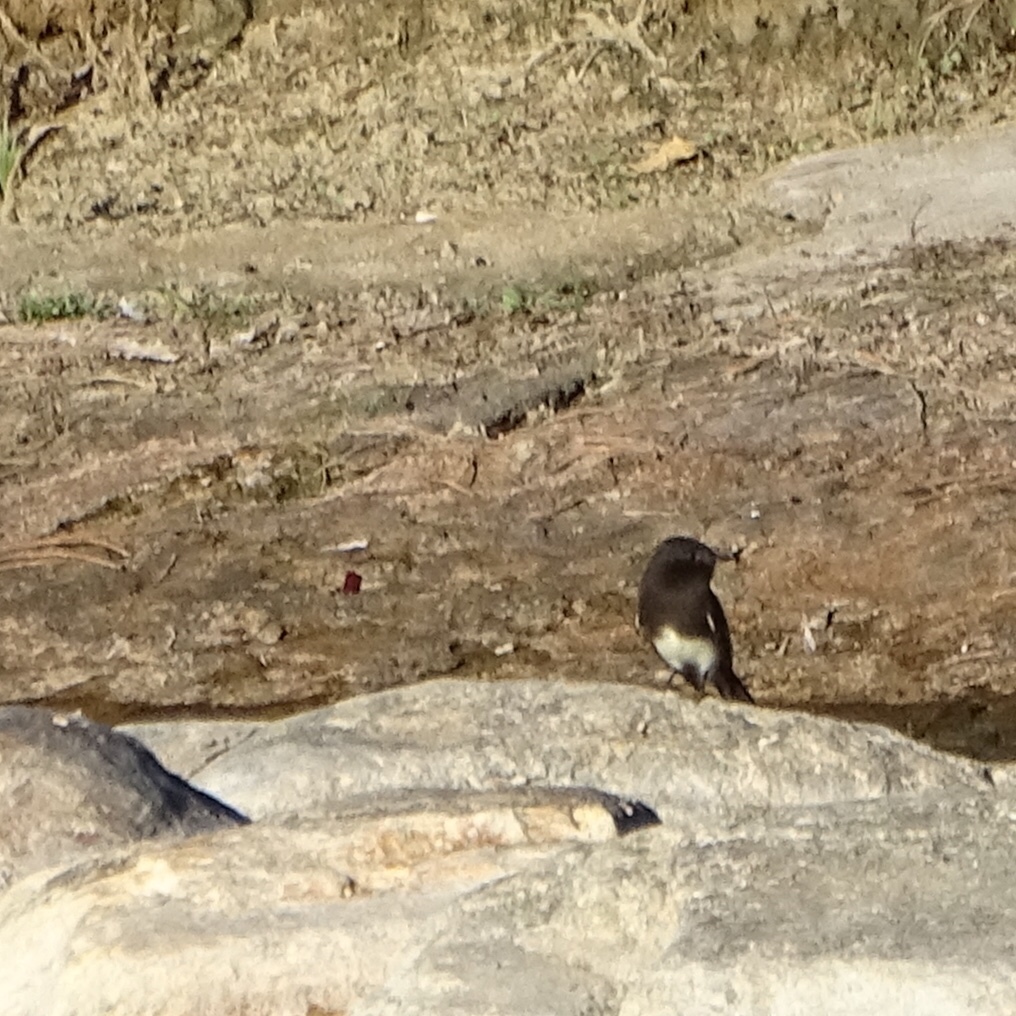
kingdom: Animalia
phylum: Chordata
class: Aves
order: Passeriformes
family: Tyrannidae
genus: Sayornis
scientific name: Sayornis nigricans
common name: Black phoebe
